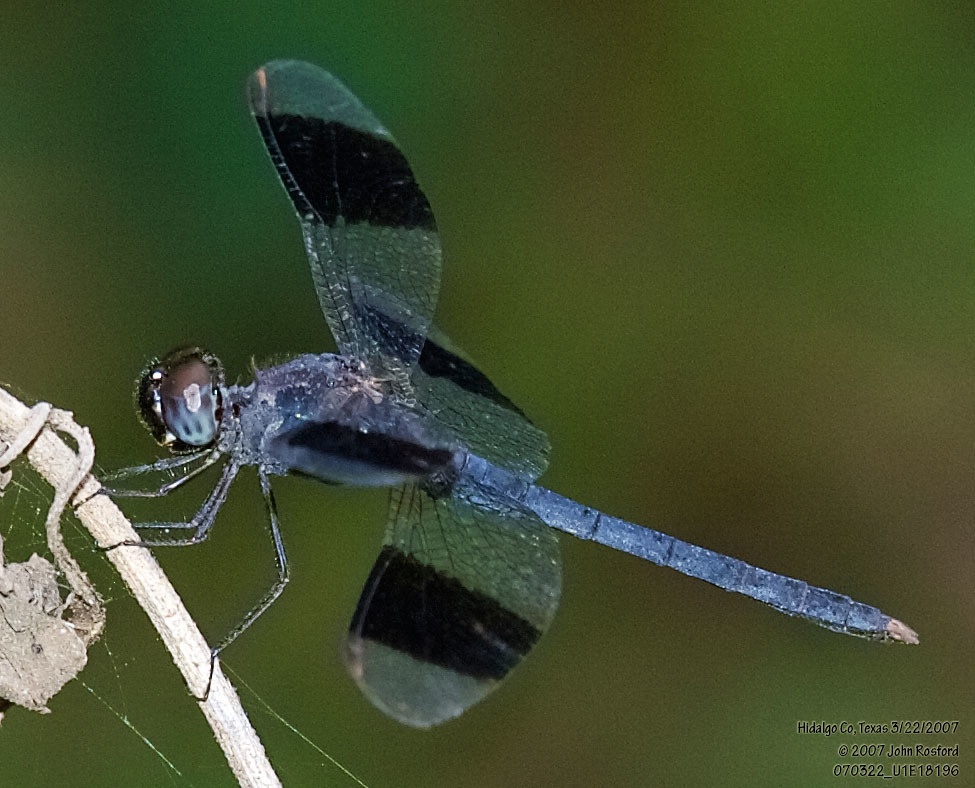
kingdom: Animalia
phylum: Arthropoda
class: Insecta
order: Odonata
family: Libellulidae
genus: Erythrodiplax
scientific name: Erythrodiplax umbrata
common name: Band-winged dragonlet
